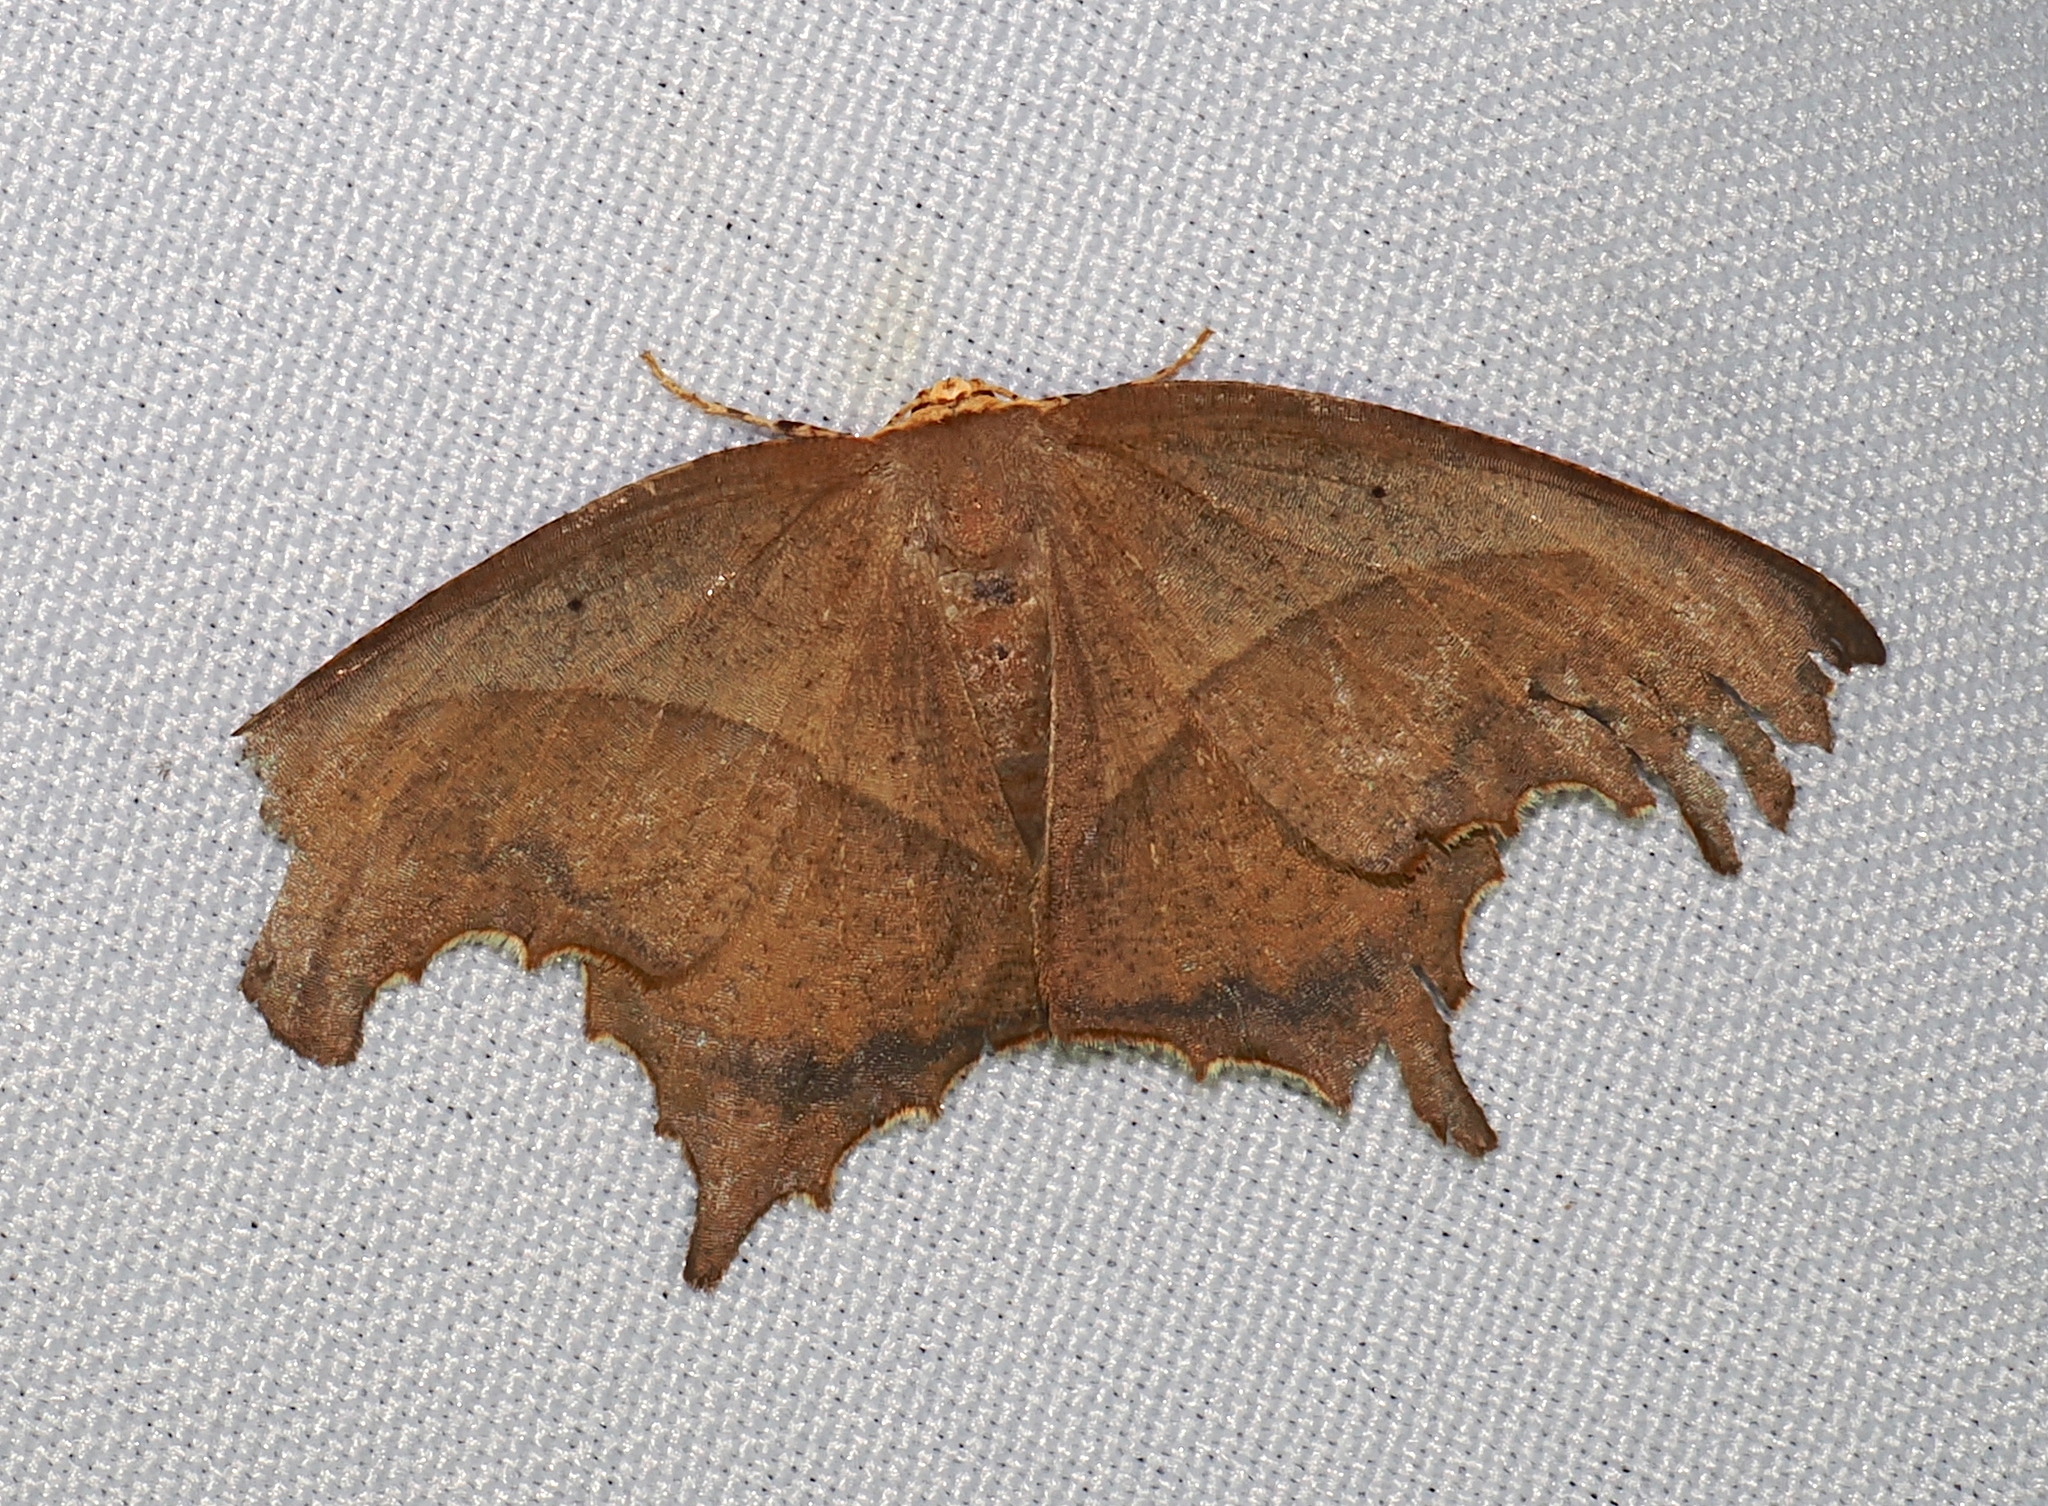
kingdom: Animalia
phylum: Arthropoda
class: Insecta
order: Lepidoptera
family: Geometridae
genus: Eutomopepla
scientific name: Eutomopepla rogenhoferi
